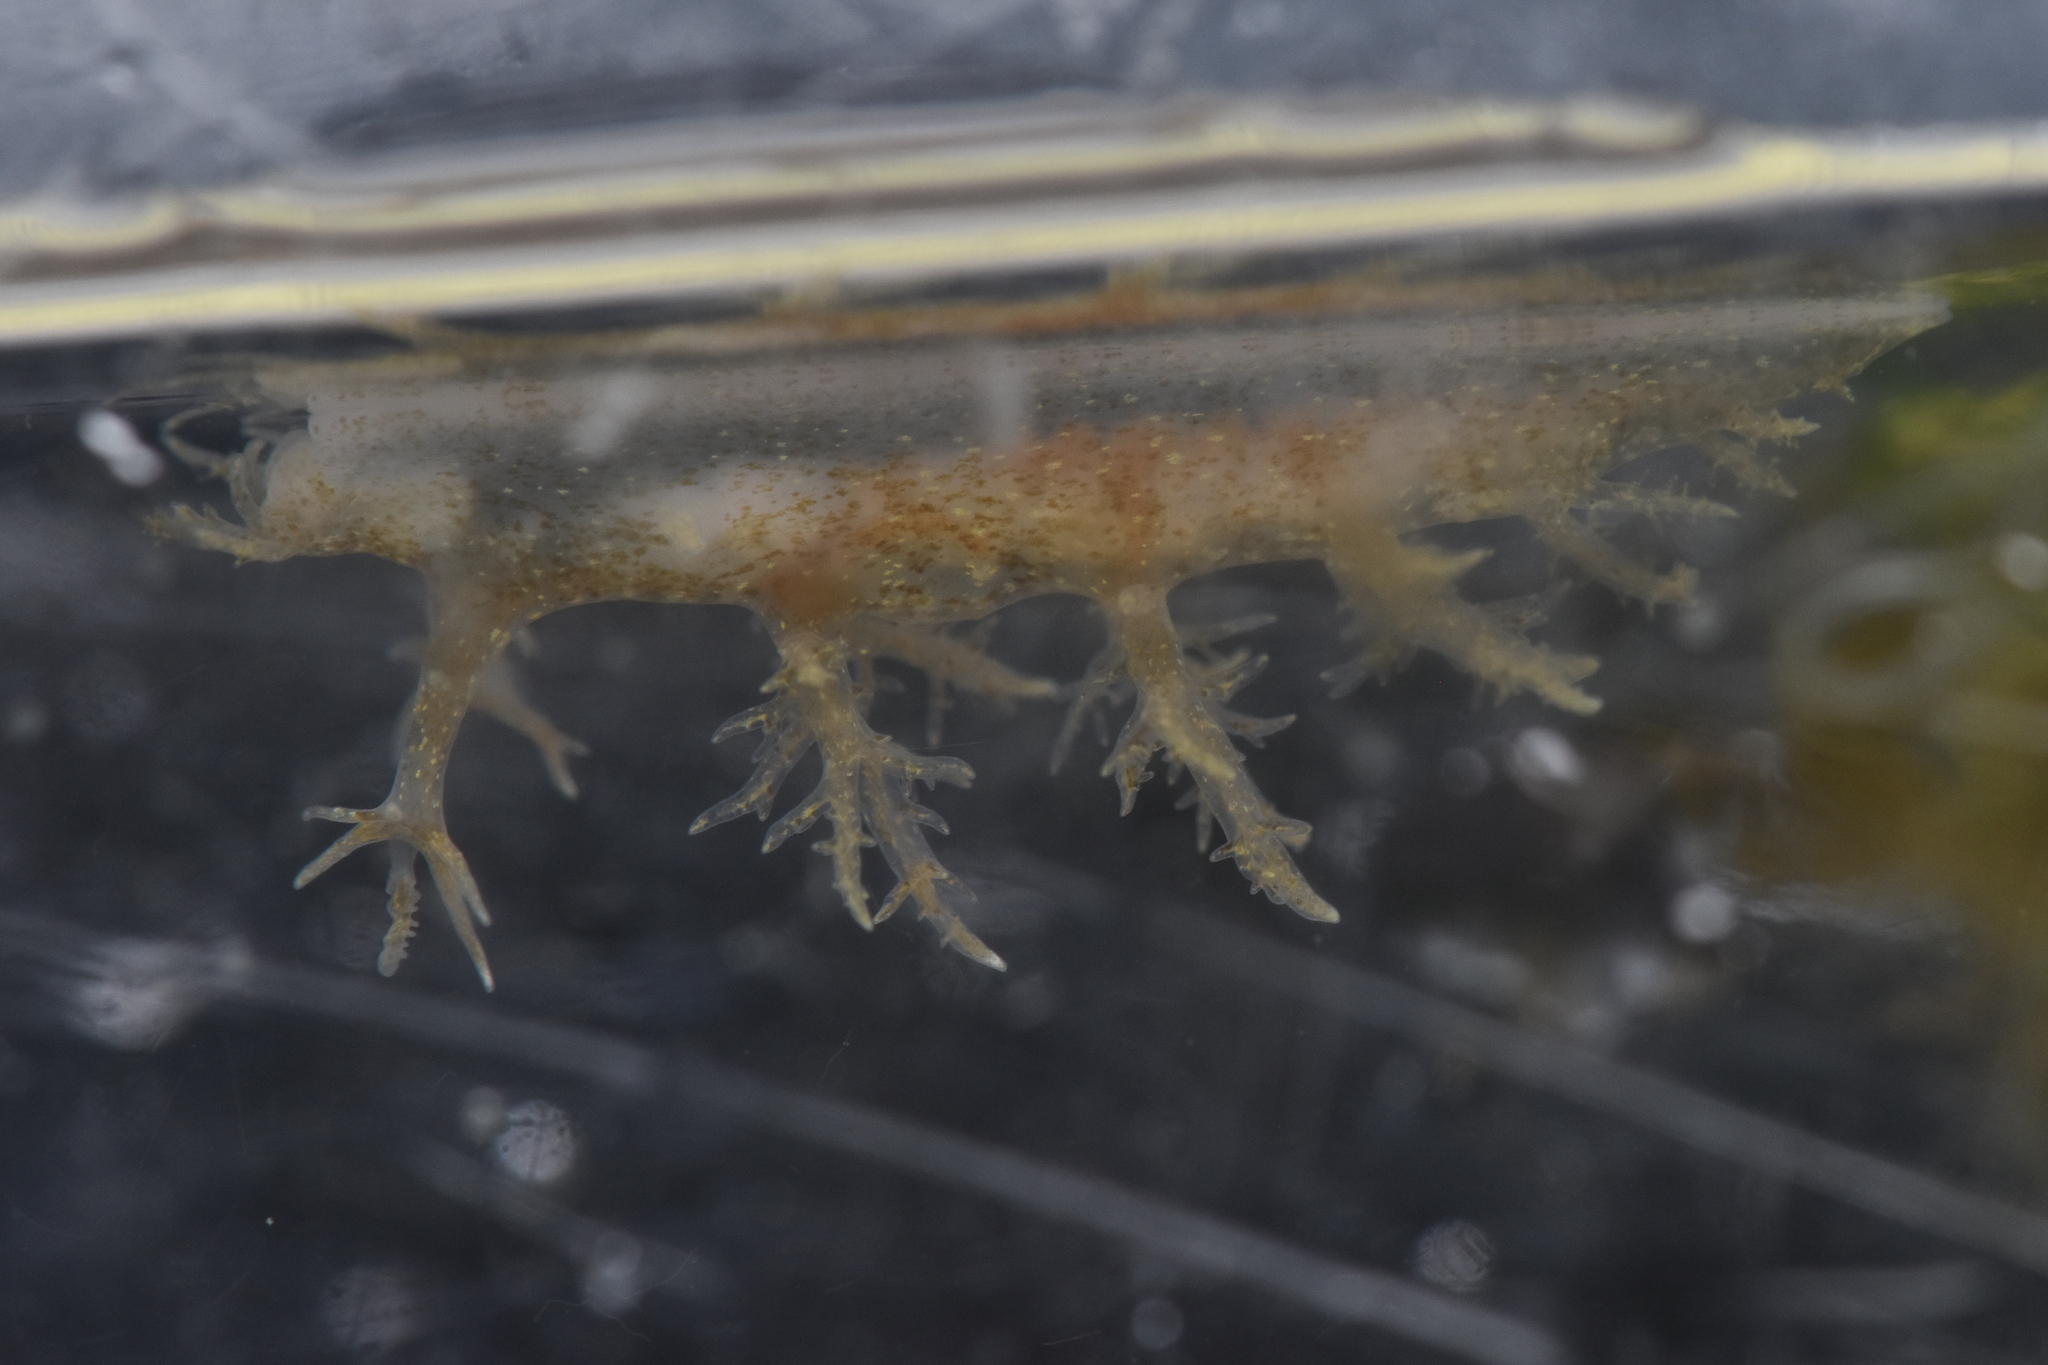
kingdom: Animalia
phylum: Mollusca
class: Gastropoda
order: Nudibranchia
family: Dendronotidae
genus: Dendronotus
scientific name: Dendronotus venustus
